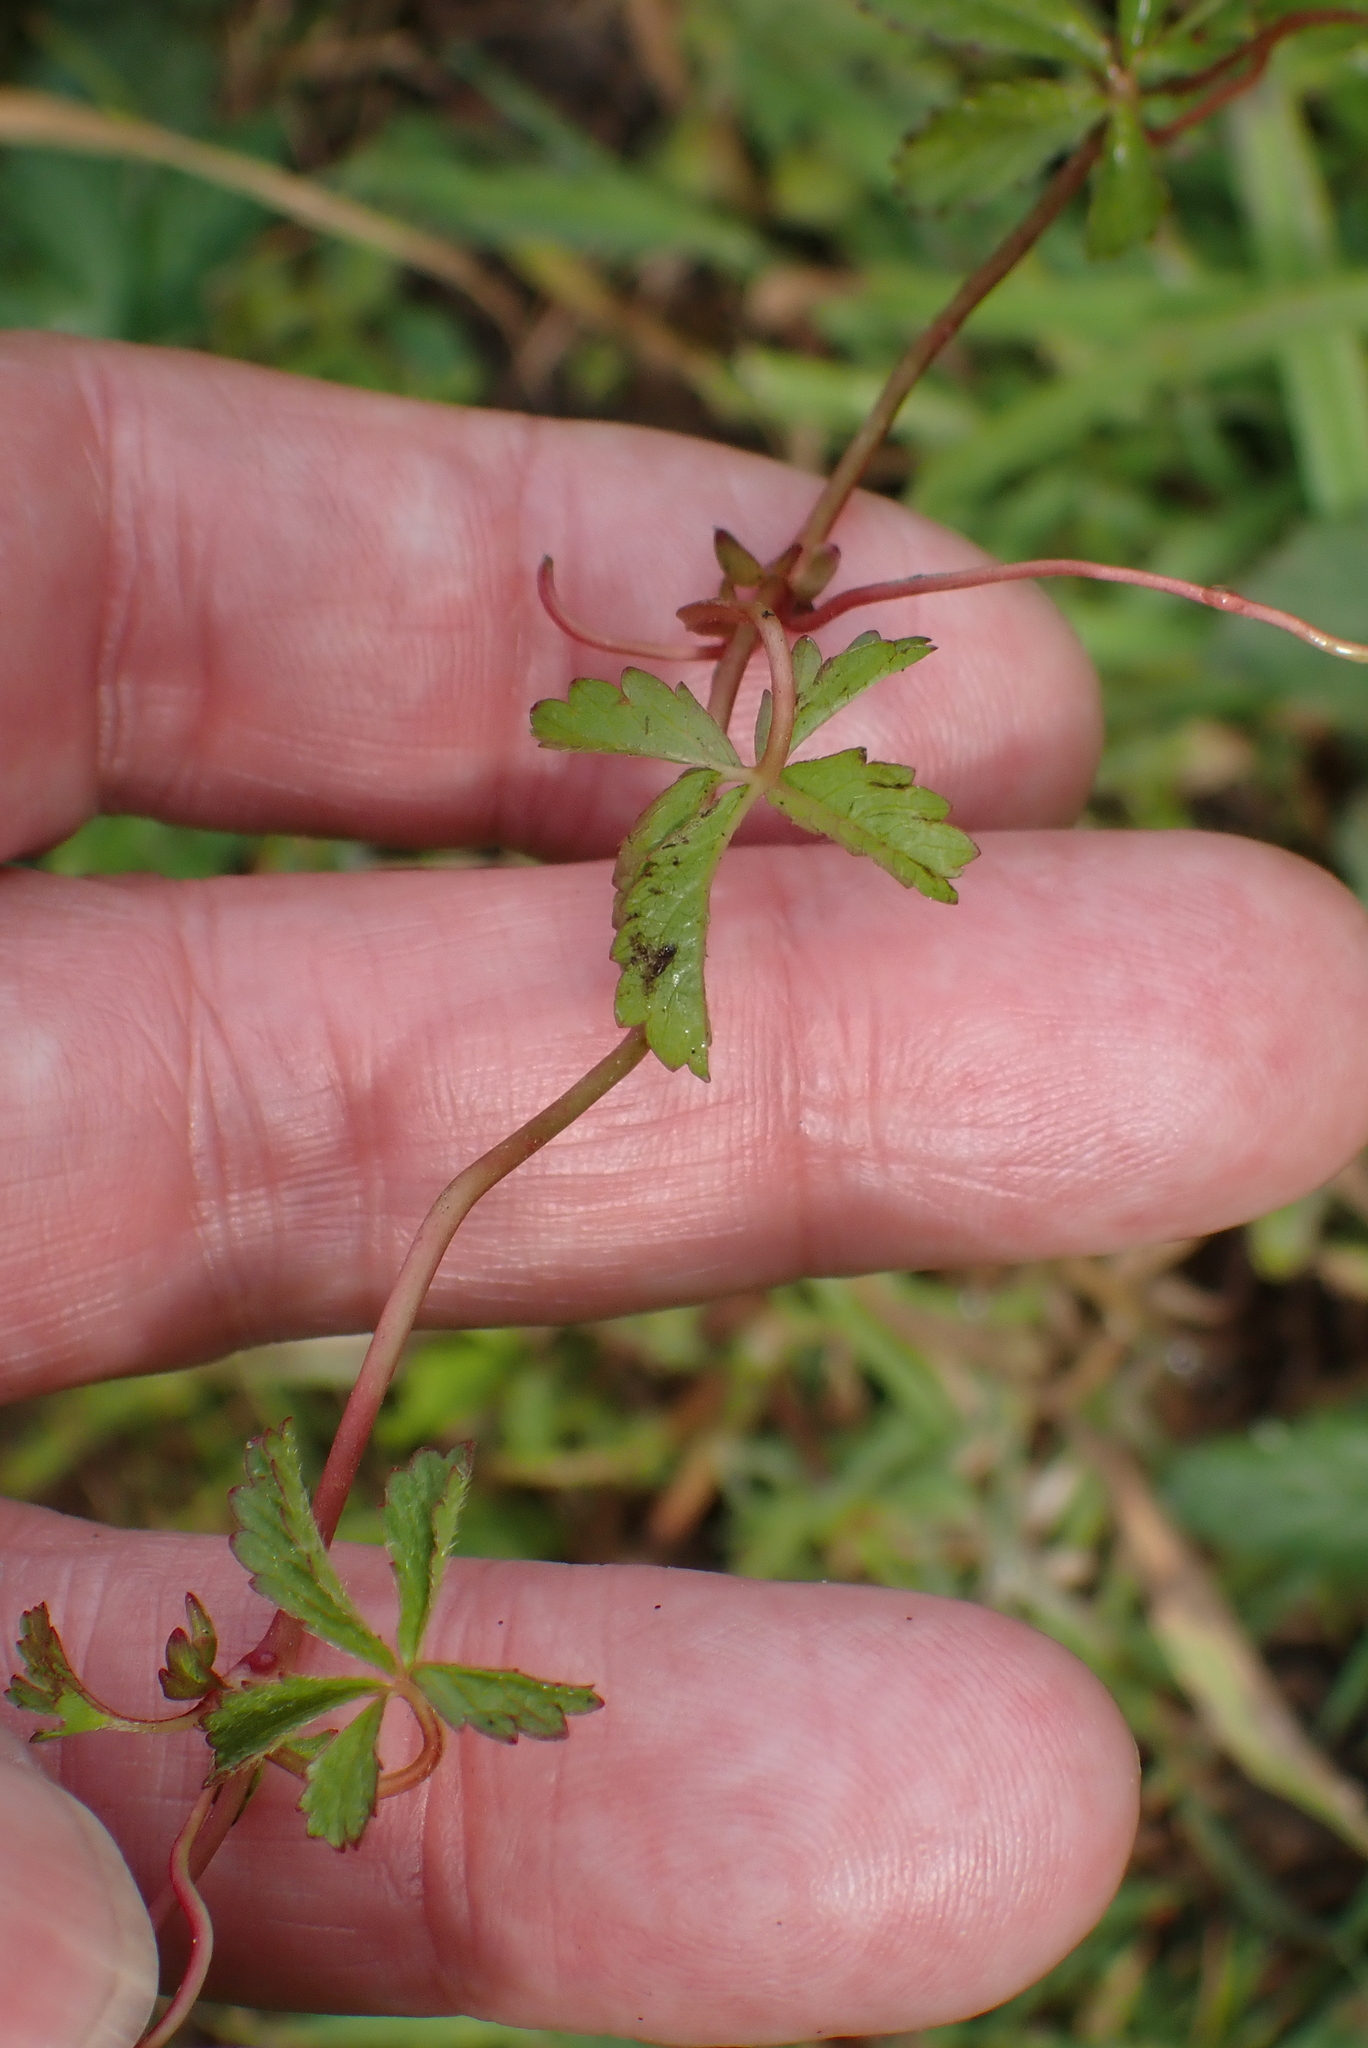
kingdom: Plantae
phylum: Tracheophyta
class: Magnoliopsida
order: Rosales
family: Rosaceae
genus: Potentilla
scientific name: Potentilla reptans
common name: Creeping cinquefoil
